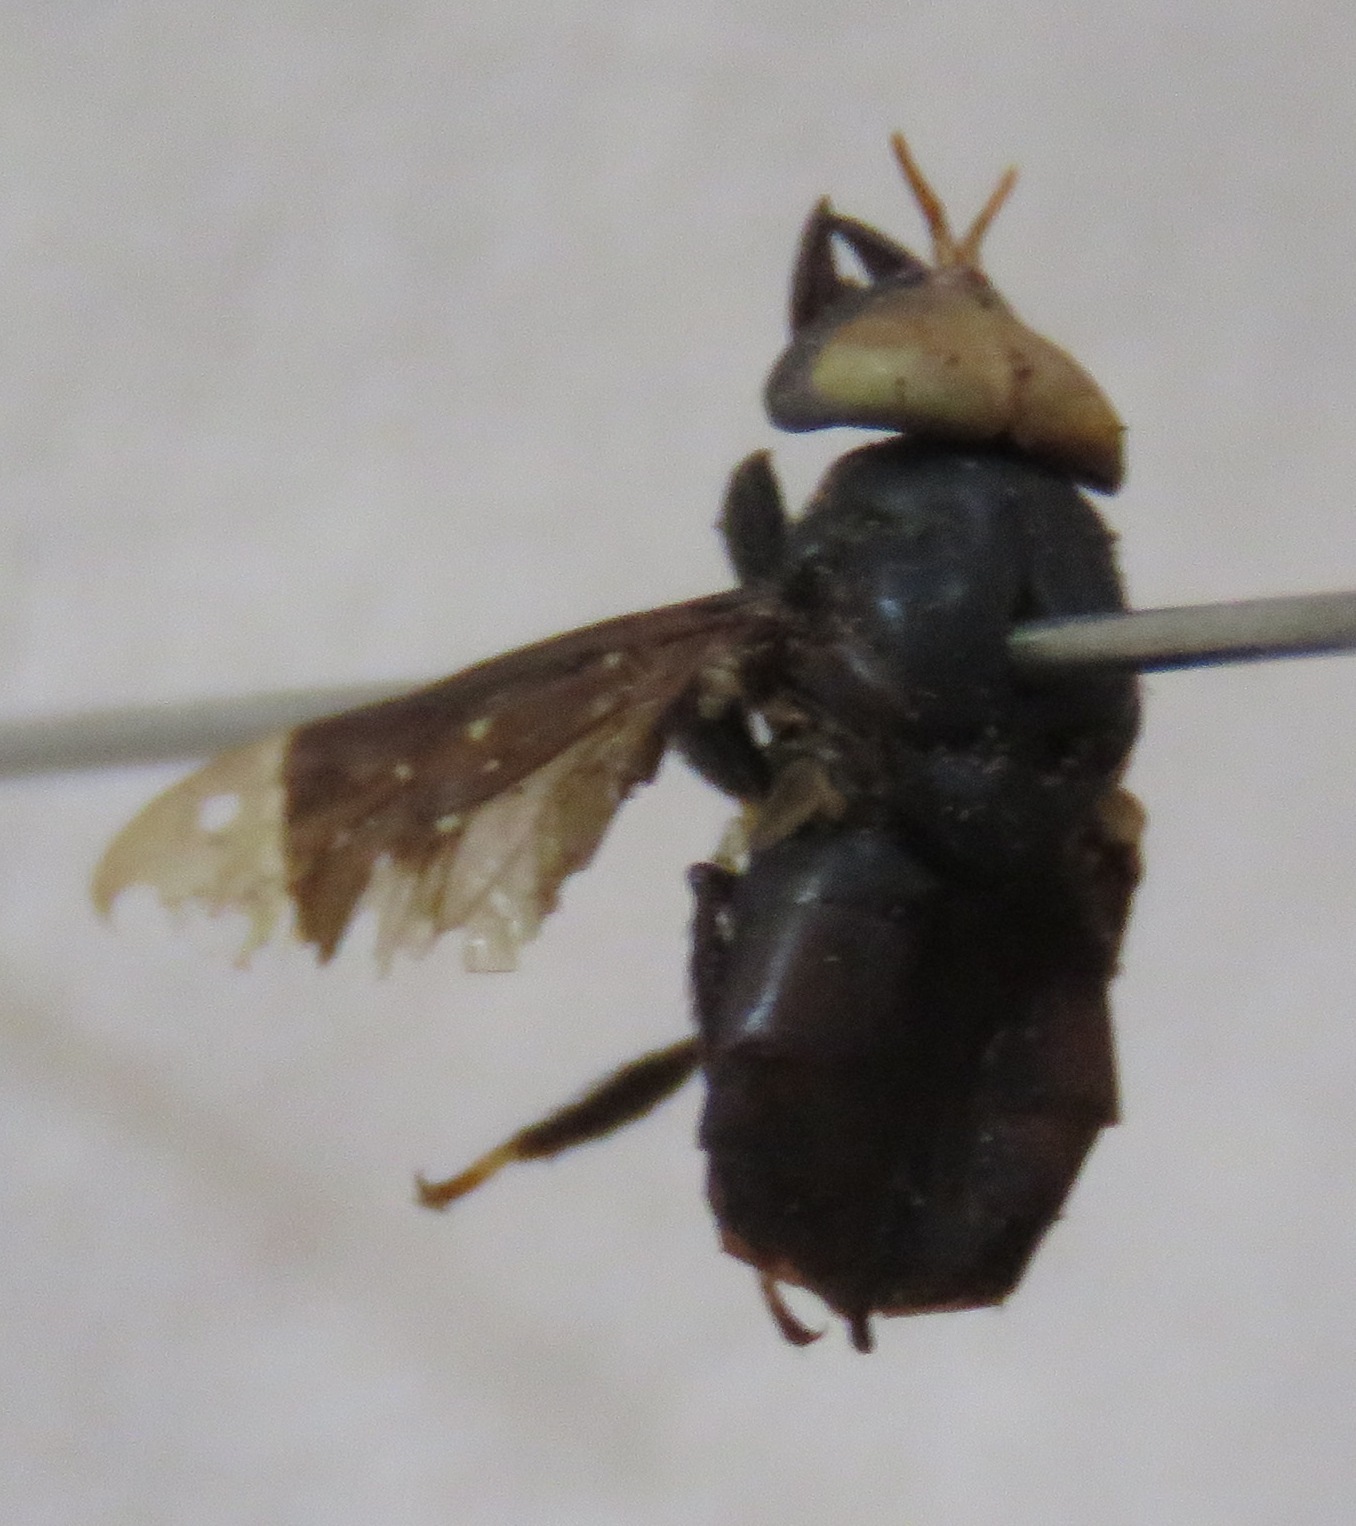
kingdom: Animalia
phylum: Arthropoda
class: Insecta
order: Diptera
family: Tabanidae
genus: Lepiselaga
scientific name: Lepiselaga crassipes
